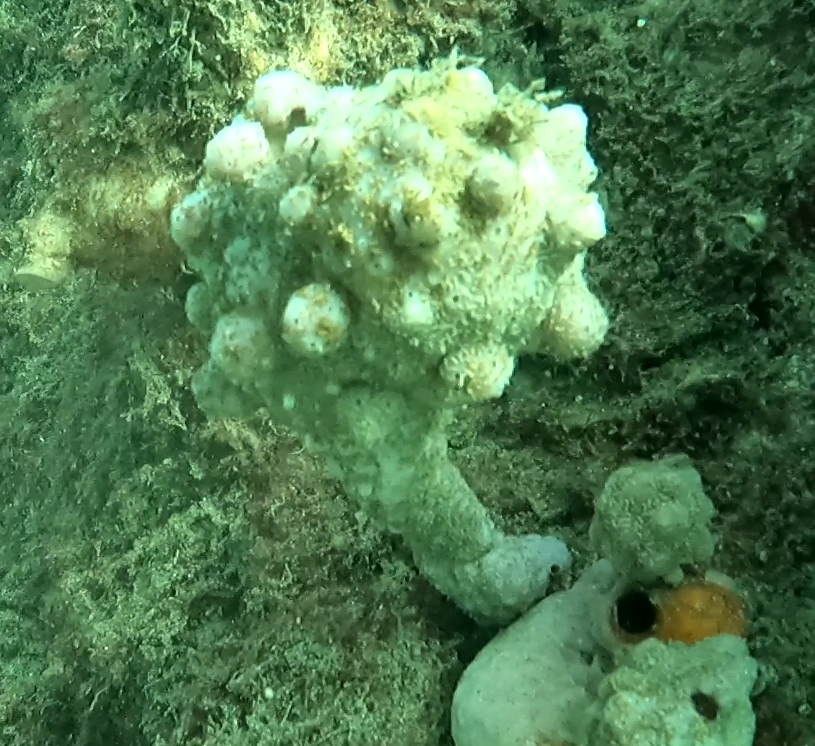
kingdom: Animalia
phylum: Chordata
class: Ascidiacea
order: Stolidobranchia
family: Pyuridae
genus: Pyura
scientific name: Pyura spinifera
